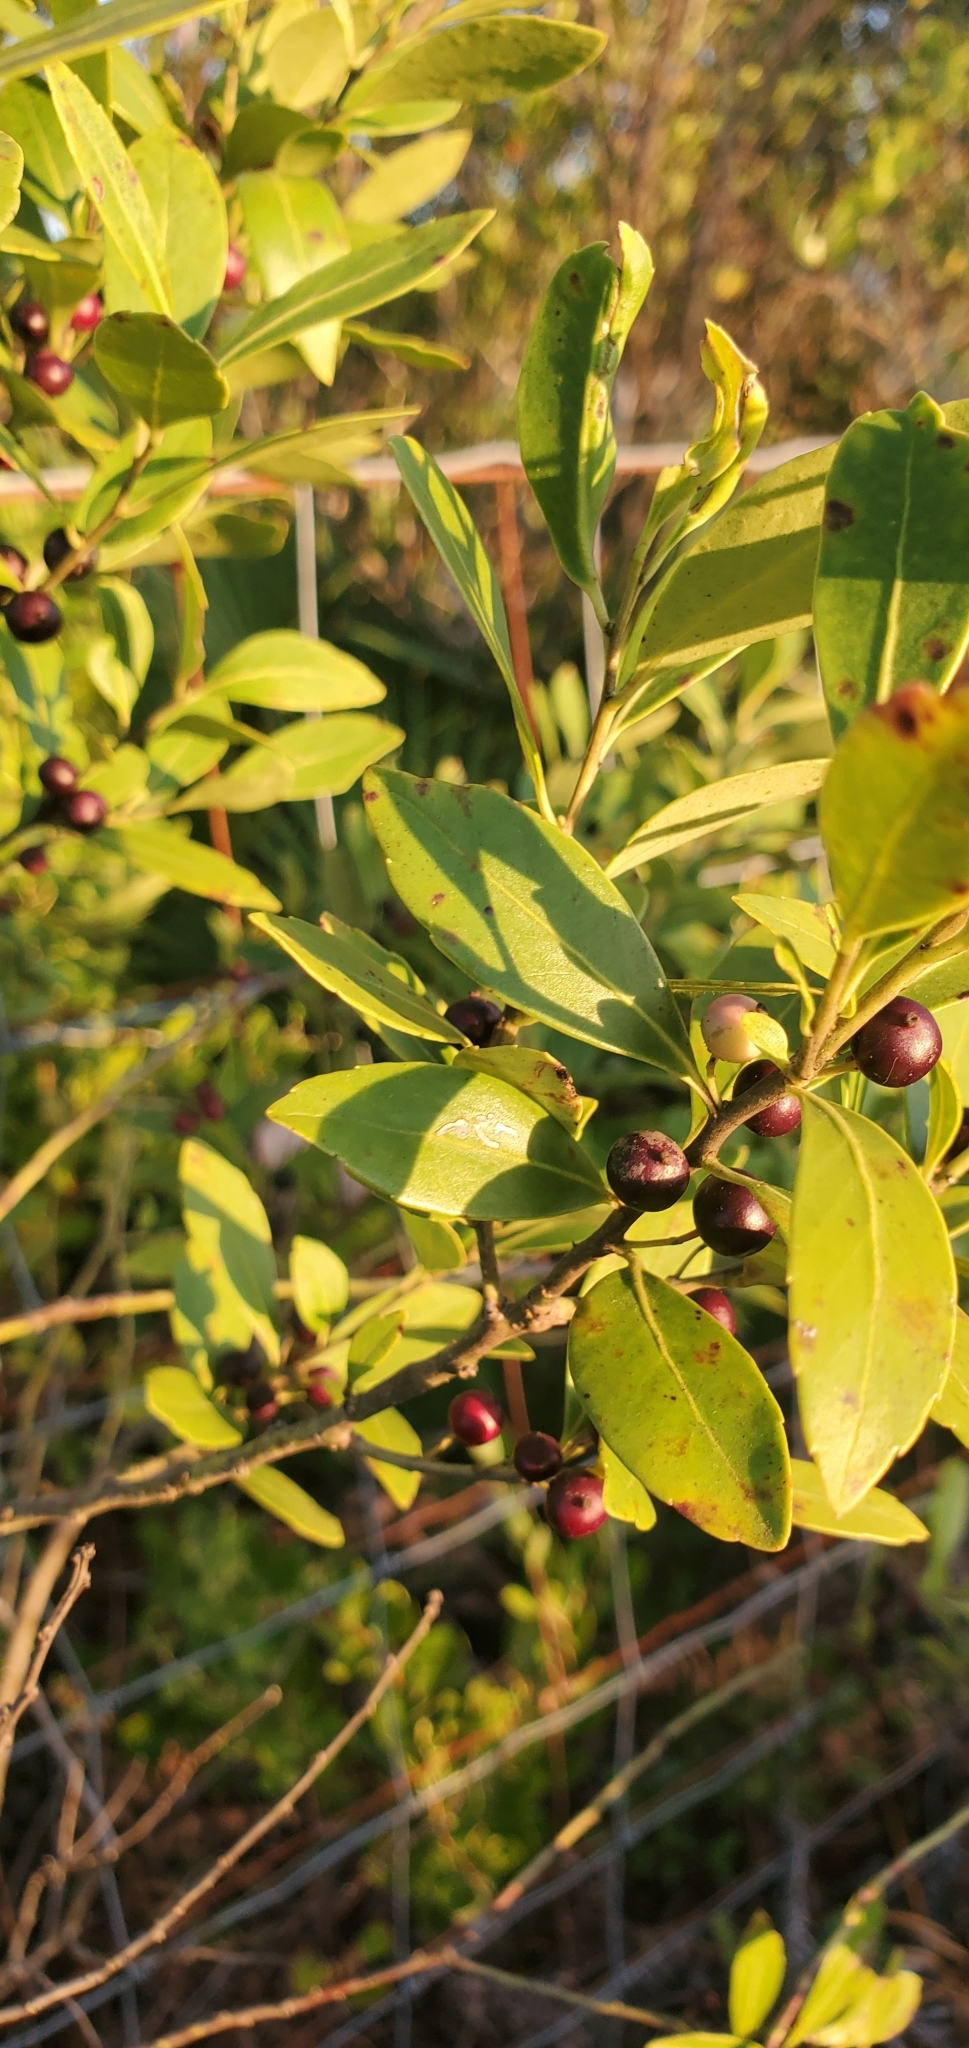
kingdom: Plantae
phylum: Tracheophyta
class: Magnoliopsida
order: Aquifoliales
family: Aquifoliaceae
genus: Ilex
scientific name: Ilex glabra
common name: Bitter gallberry
